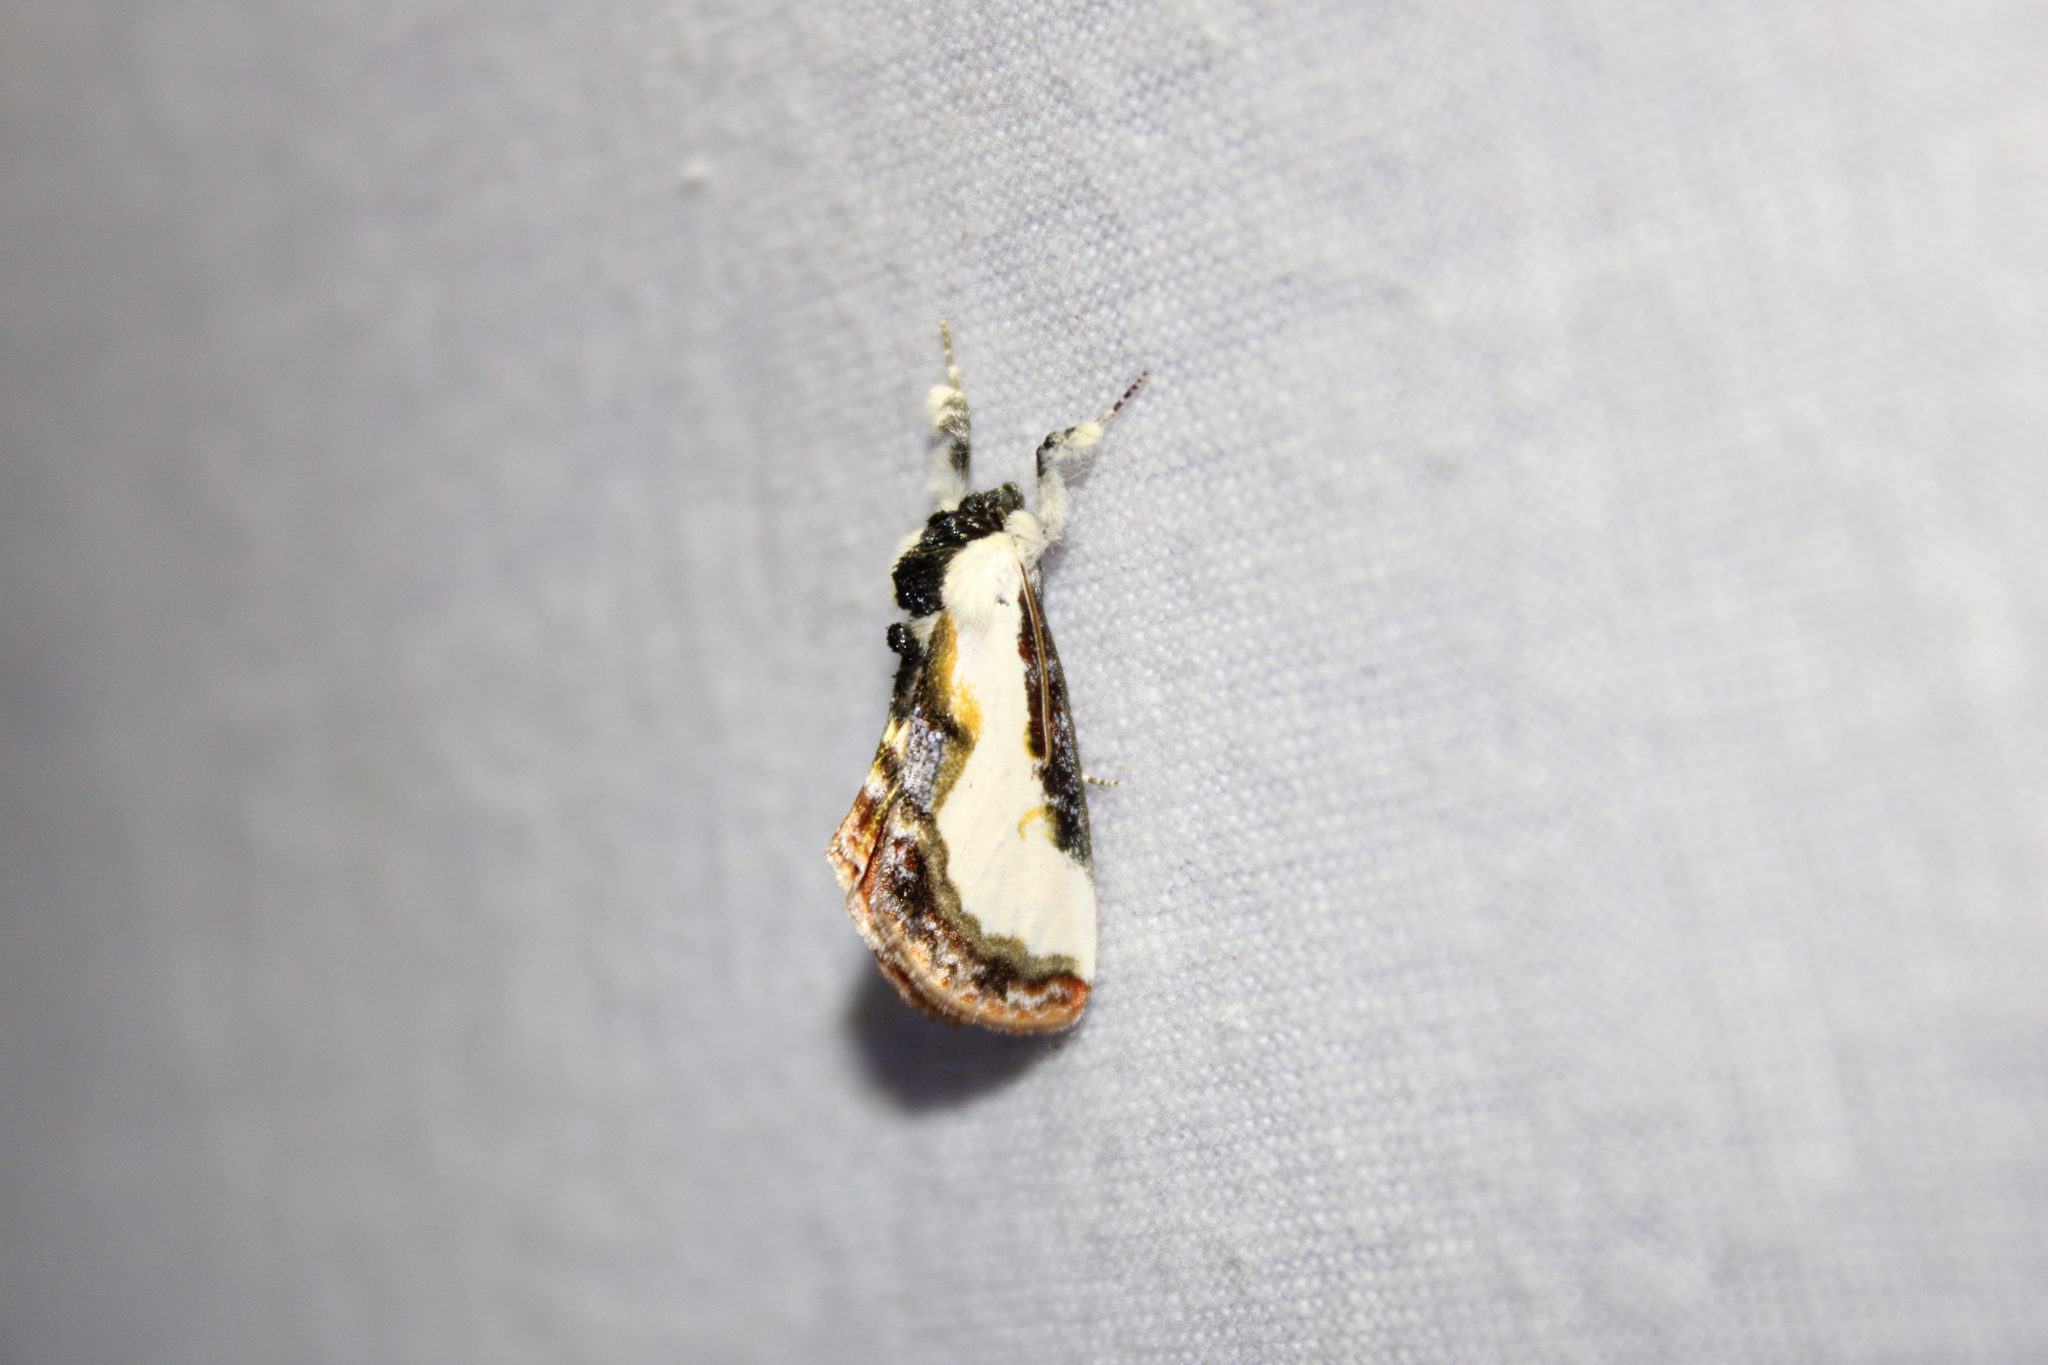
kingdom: Animalia
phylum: Arthropoda
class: Insecta
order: Lepidoptera
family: Noctuidae
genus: Eudryas
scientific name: Eudryas unio
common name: Pearly wood-nymph
